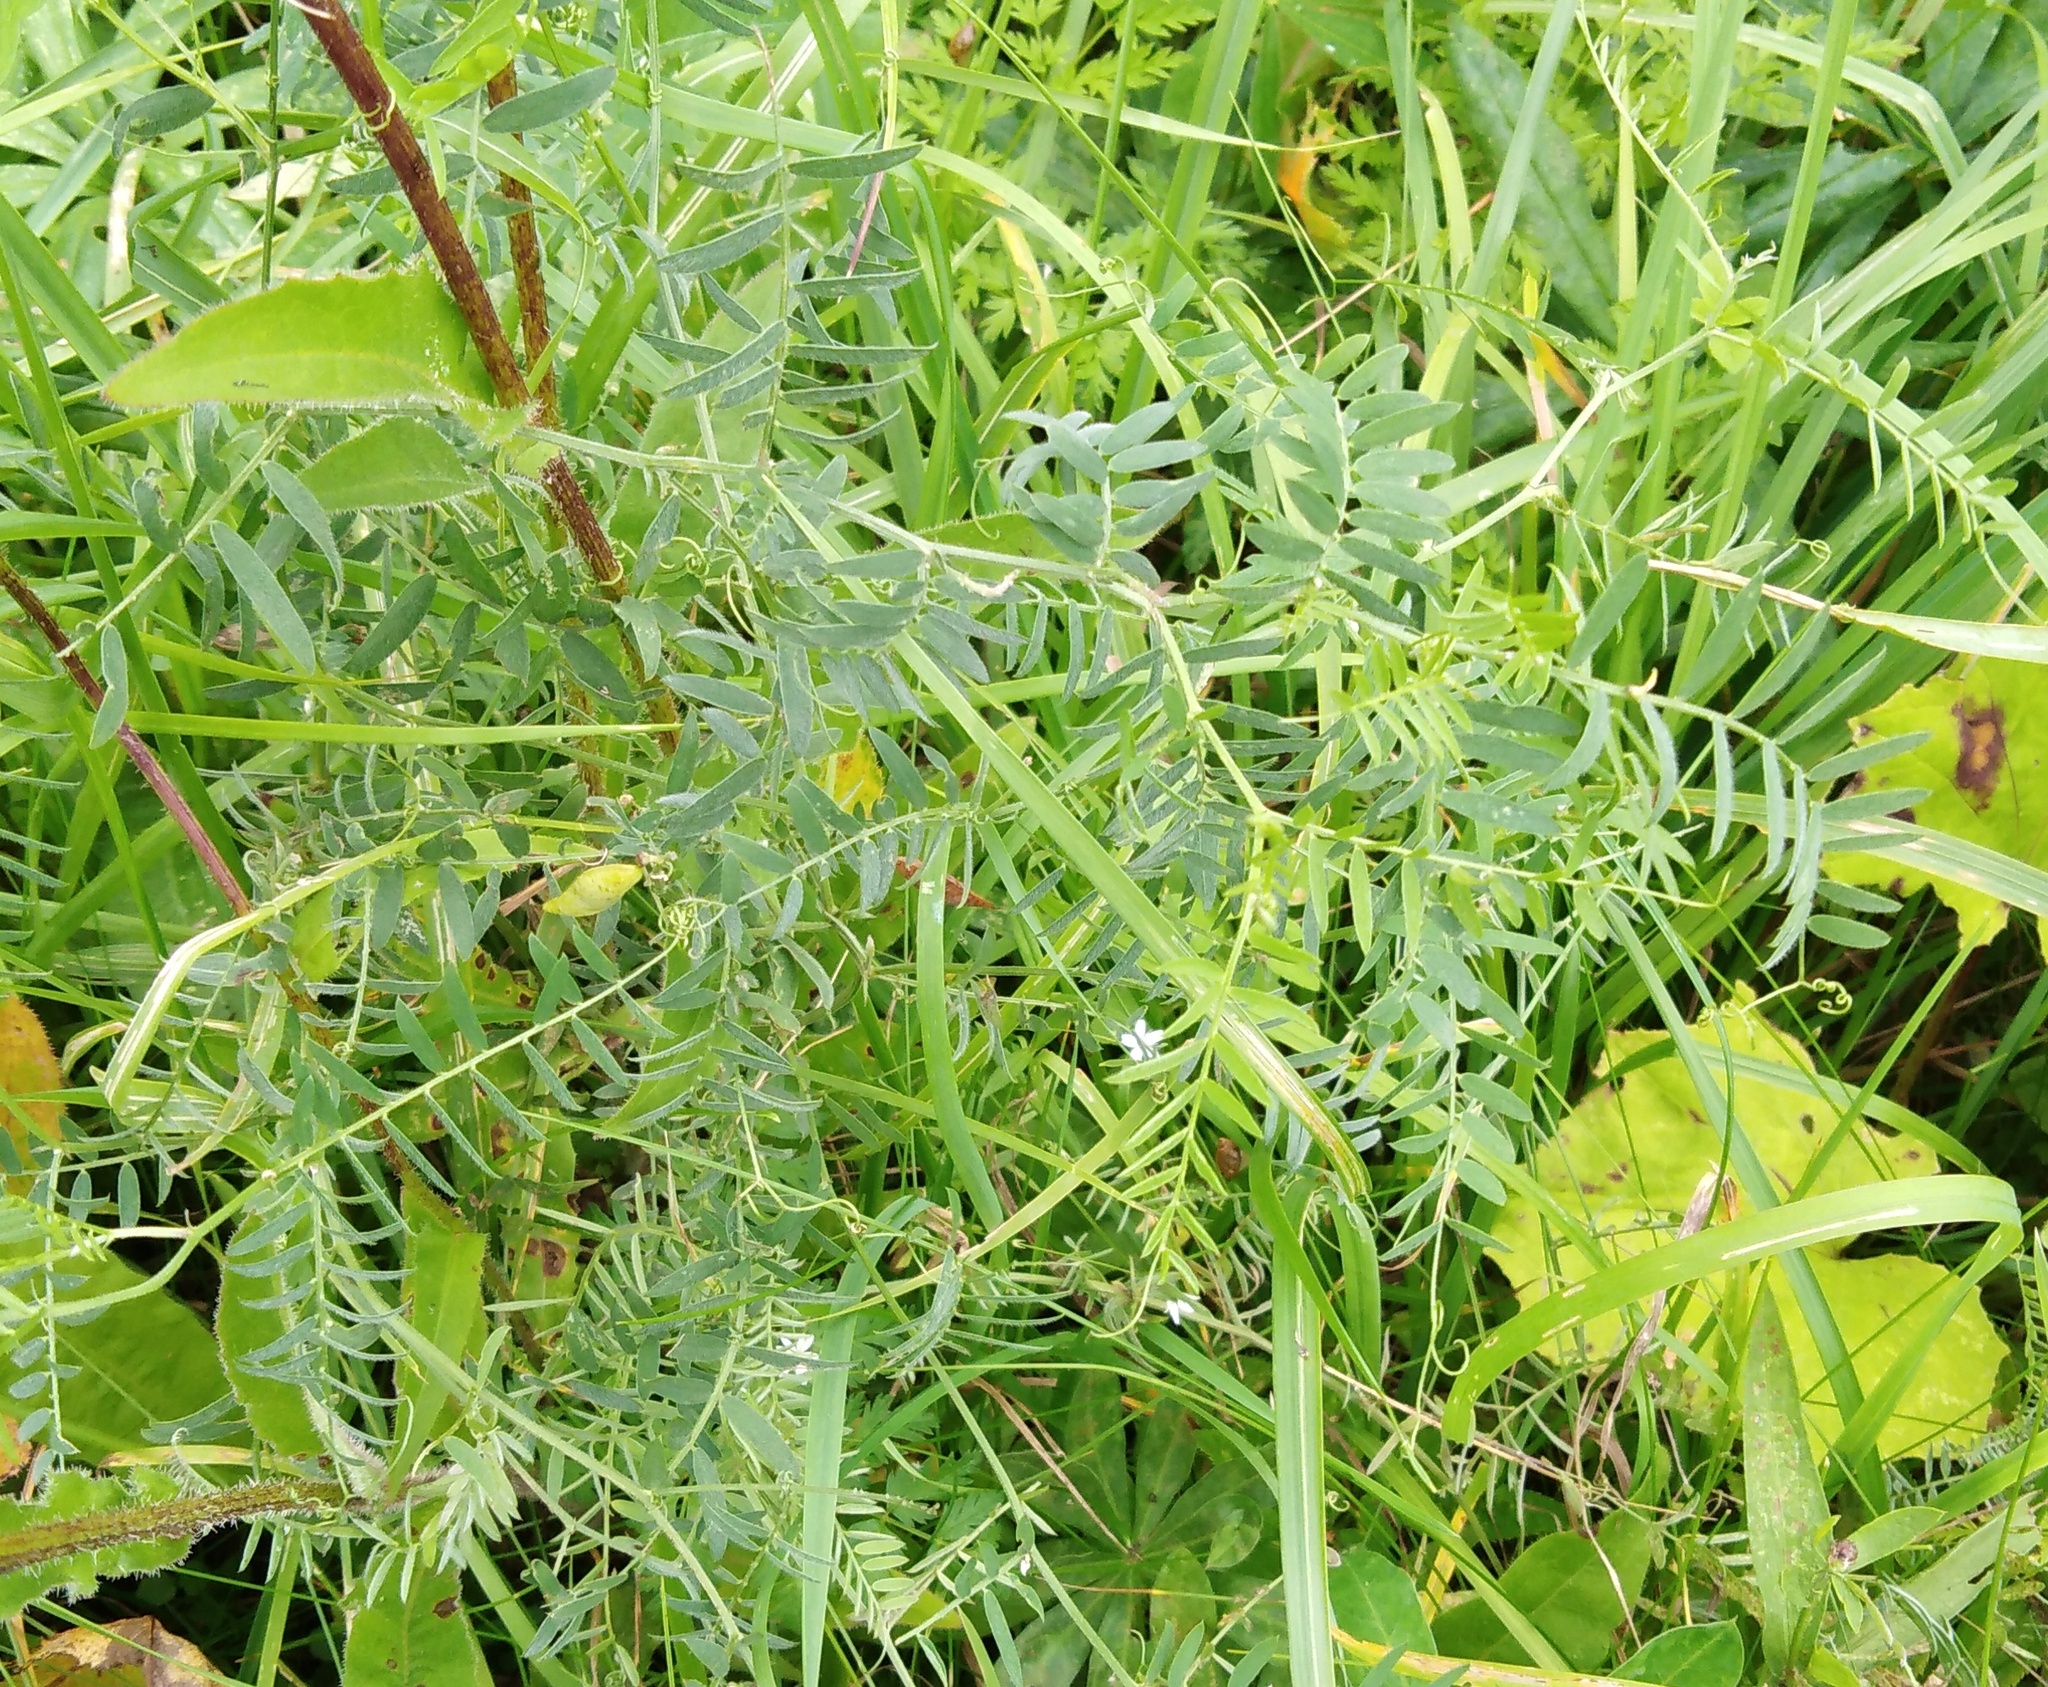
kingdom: Plantae
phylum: Tracheophyta
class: Magnoliopsida
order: Fabales
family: Fabaceae
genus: Vicia
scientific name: Vicia cracca
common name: Bird vetch
